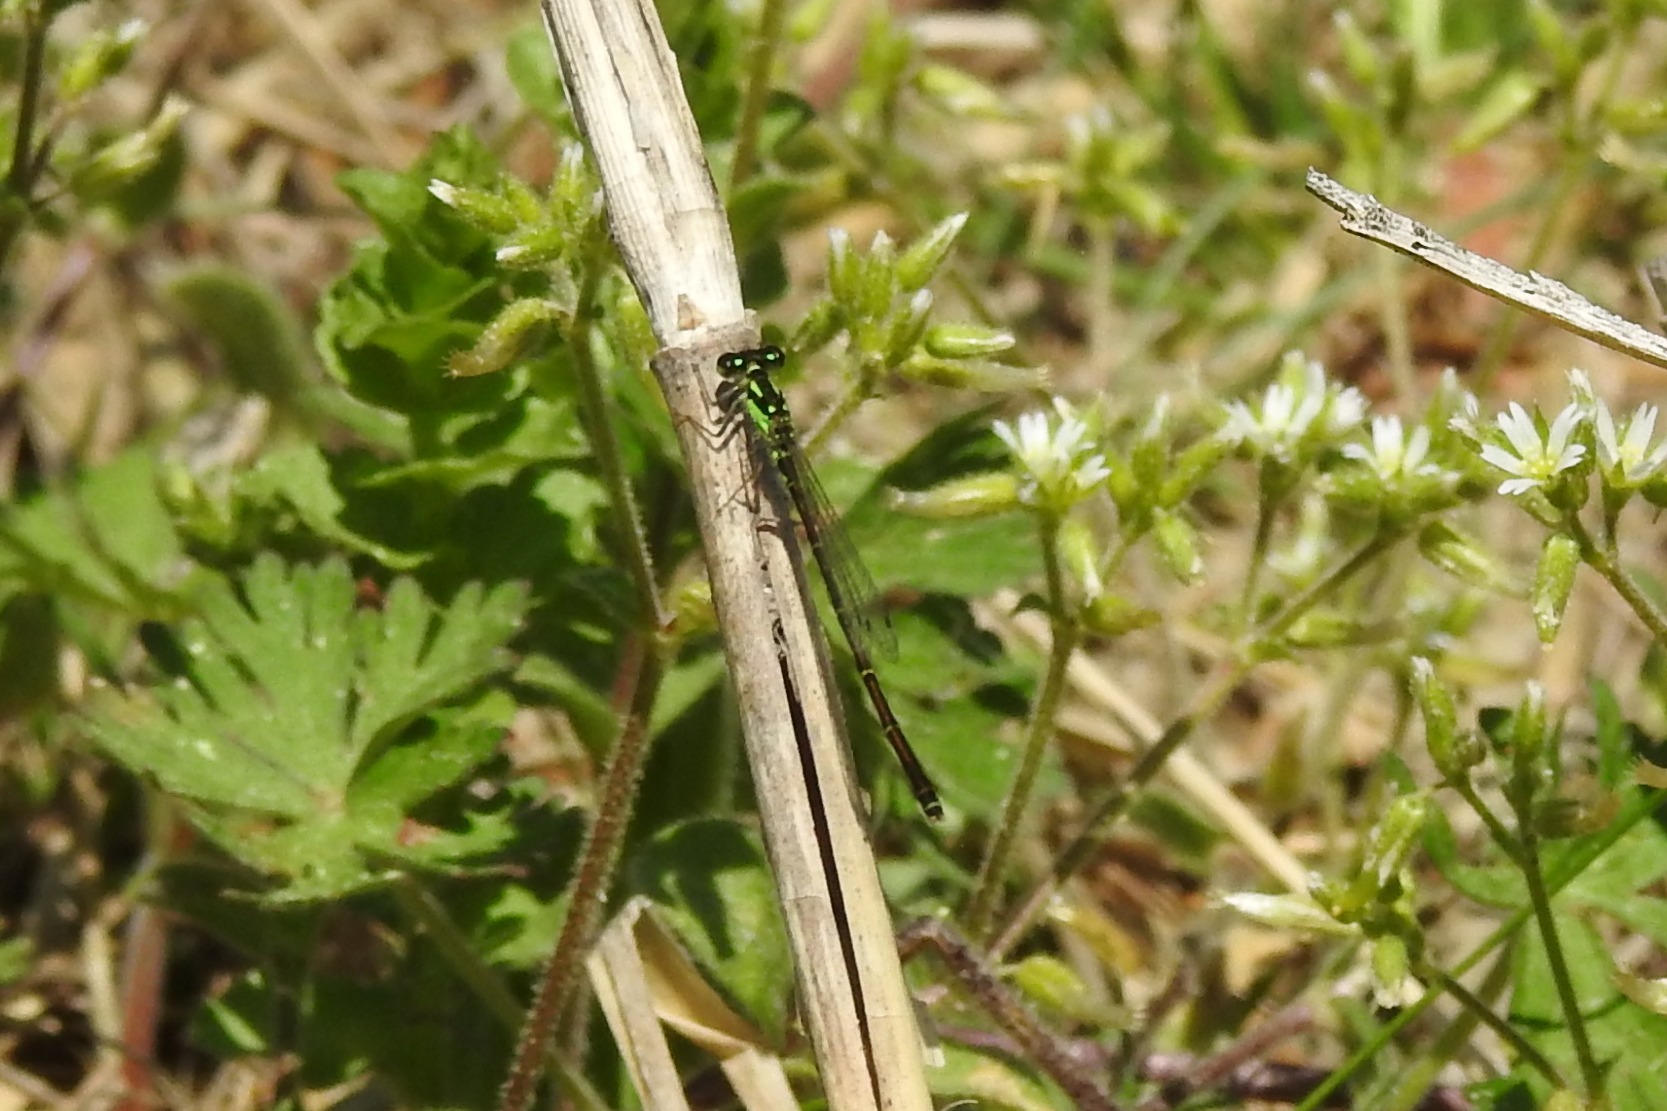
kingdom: Animalia
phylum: Arthropoda
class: Insecta
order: Odonata
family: Coenagrionidae
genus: Ischnura
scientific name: Ischnura posita
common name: Fragile forktail
